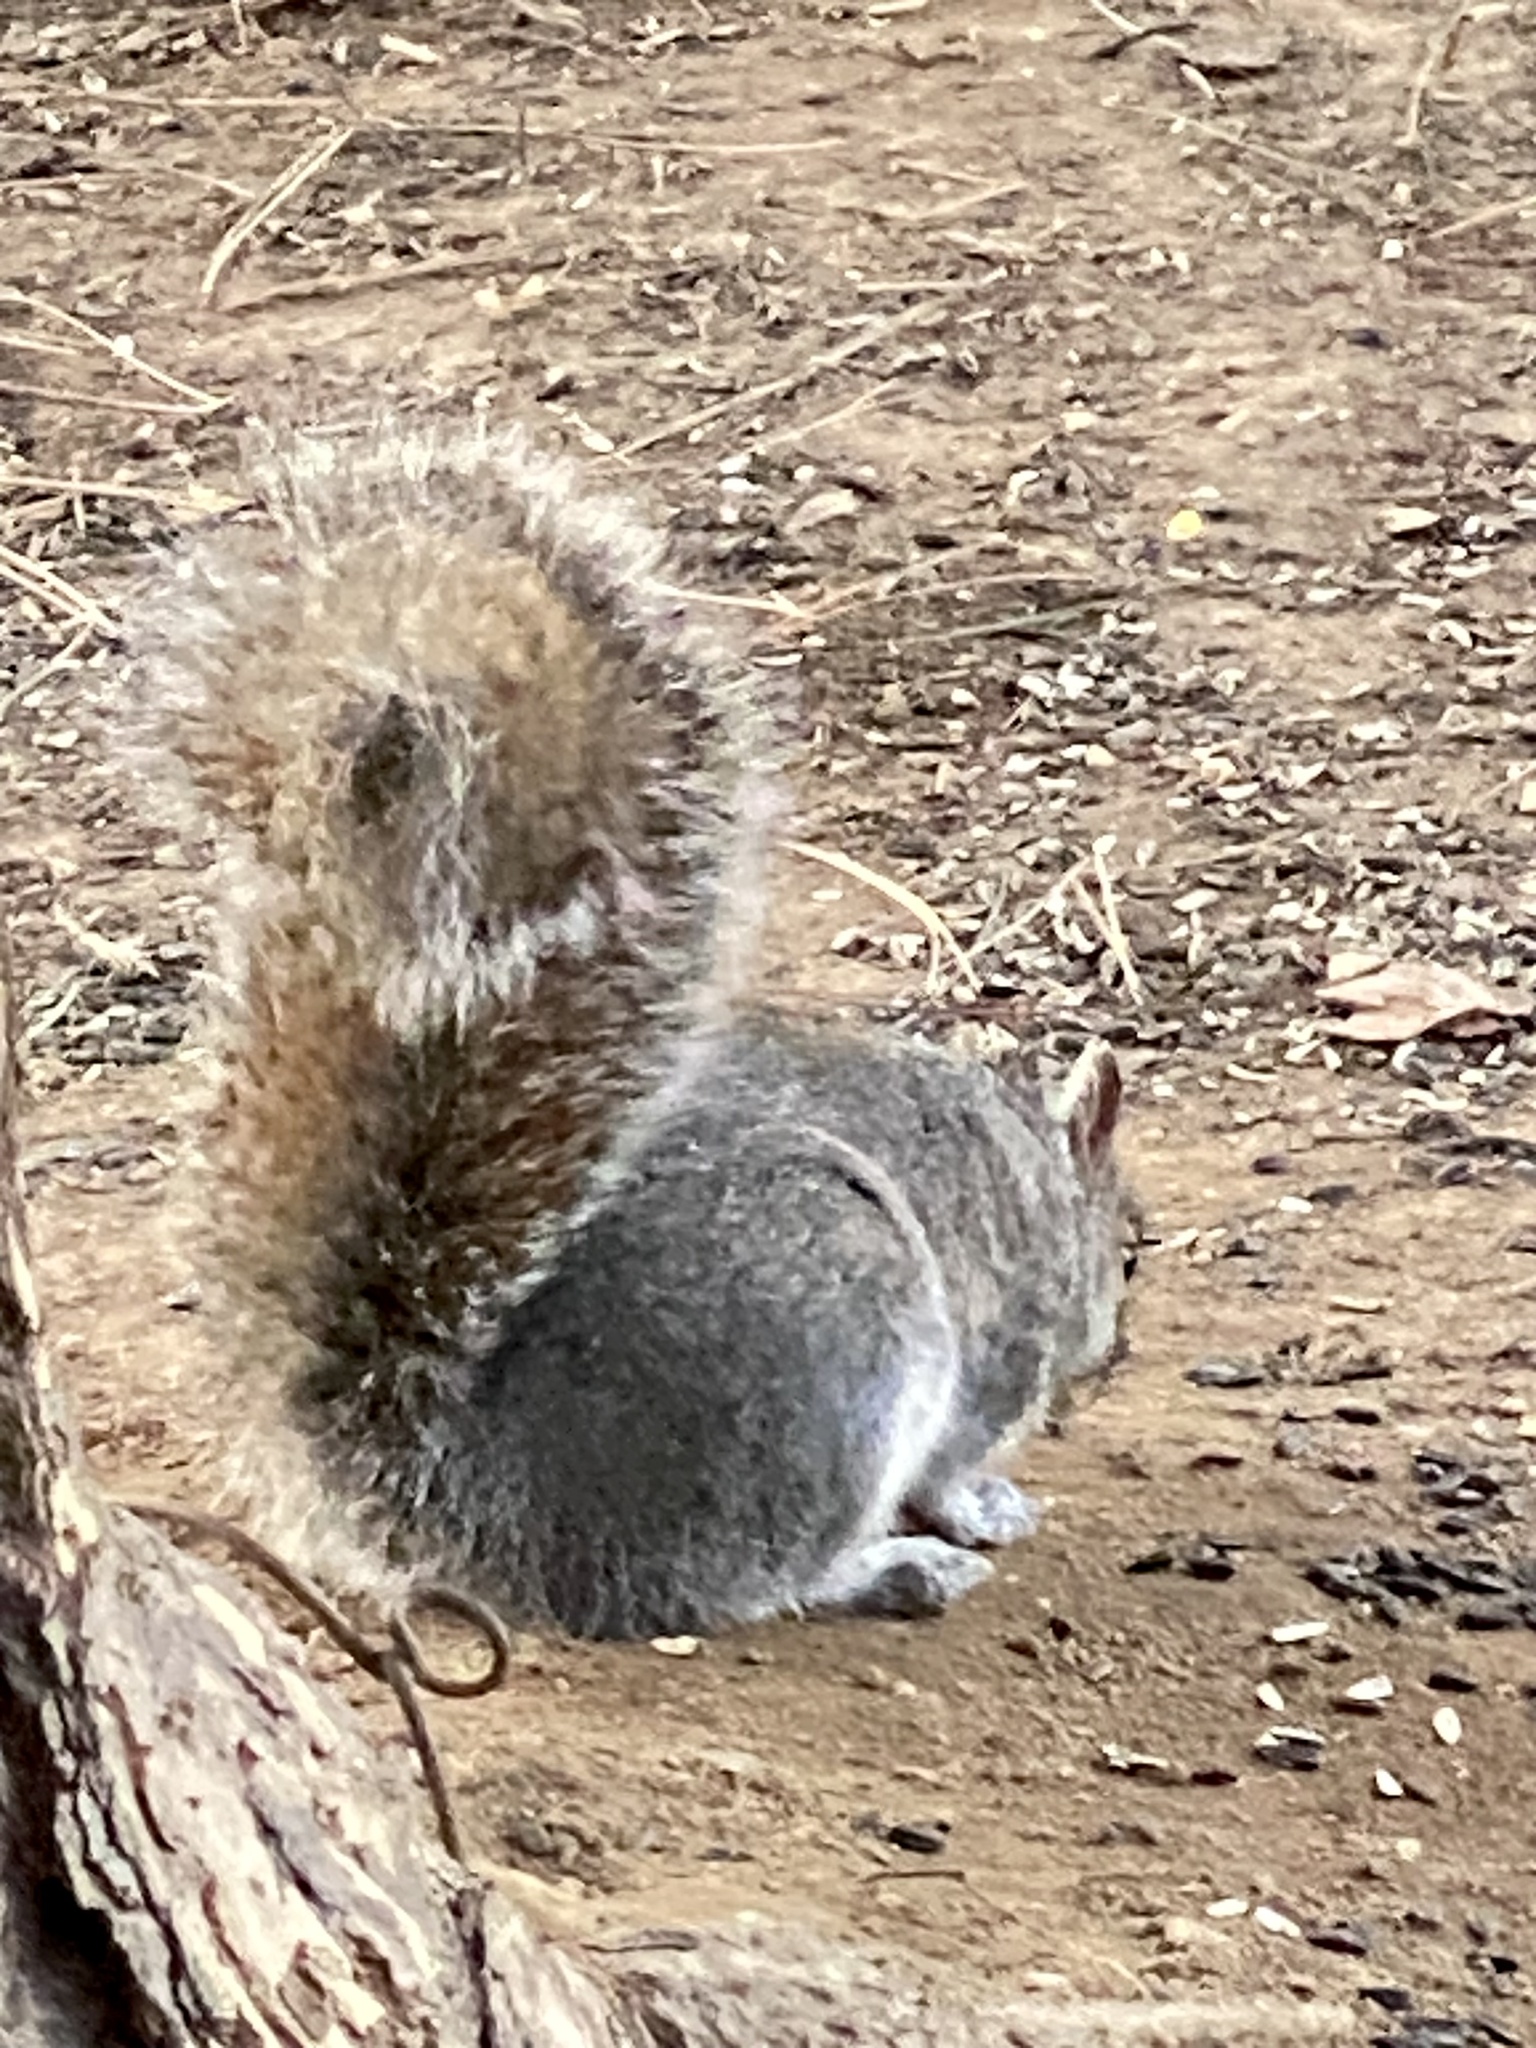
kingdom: Animalia
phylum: Chordata
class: Mammalia
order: Rodentia
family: Sciuridae
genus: Sciurus
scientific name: Sciurus carolinensis
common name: Eastern gray squirrel
